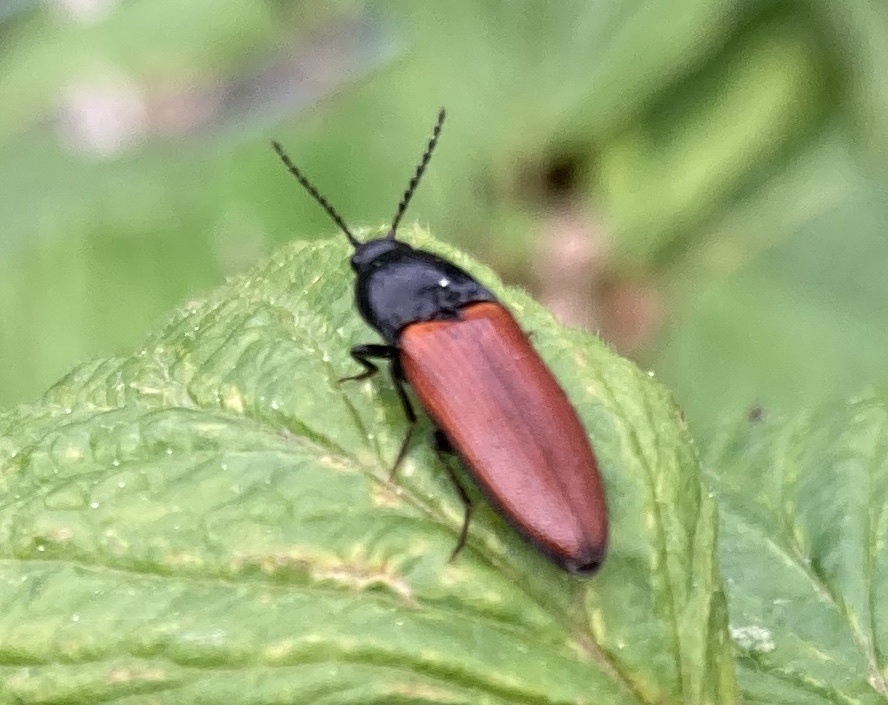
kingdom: Animalia
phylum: Arthropoda
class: Insecta
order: Coleoptera
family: Elateridae
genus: Ampedus
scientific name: Ampedus pomorum
